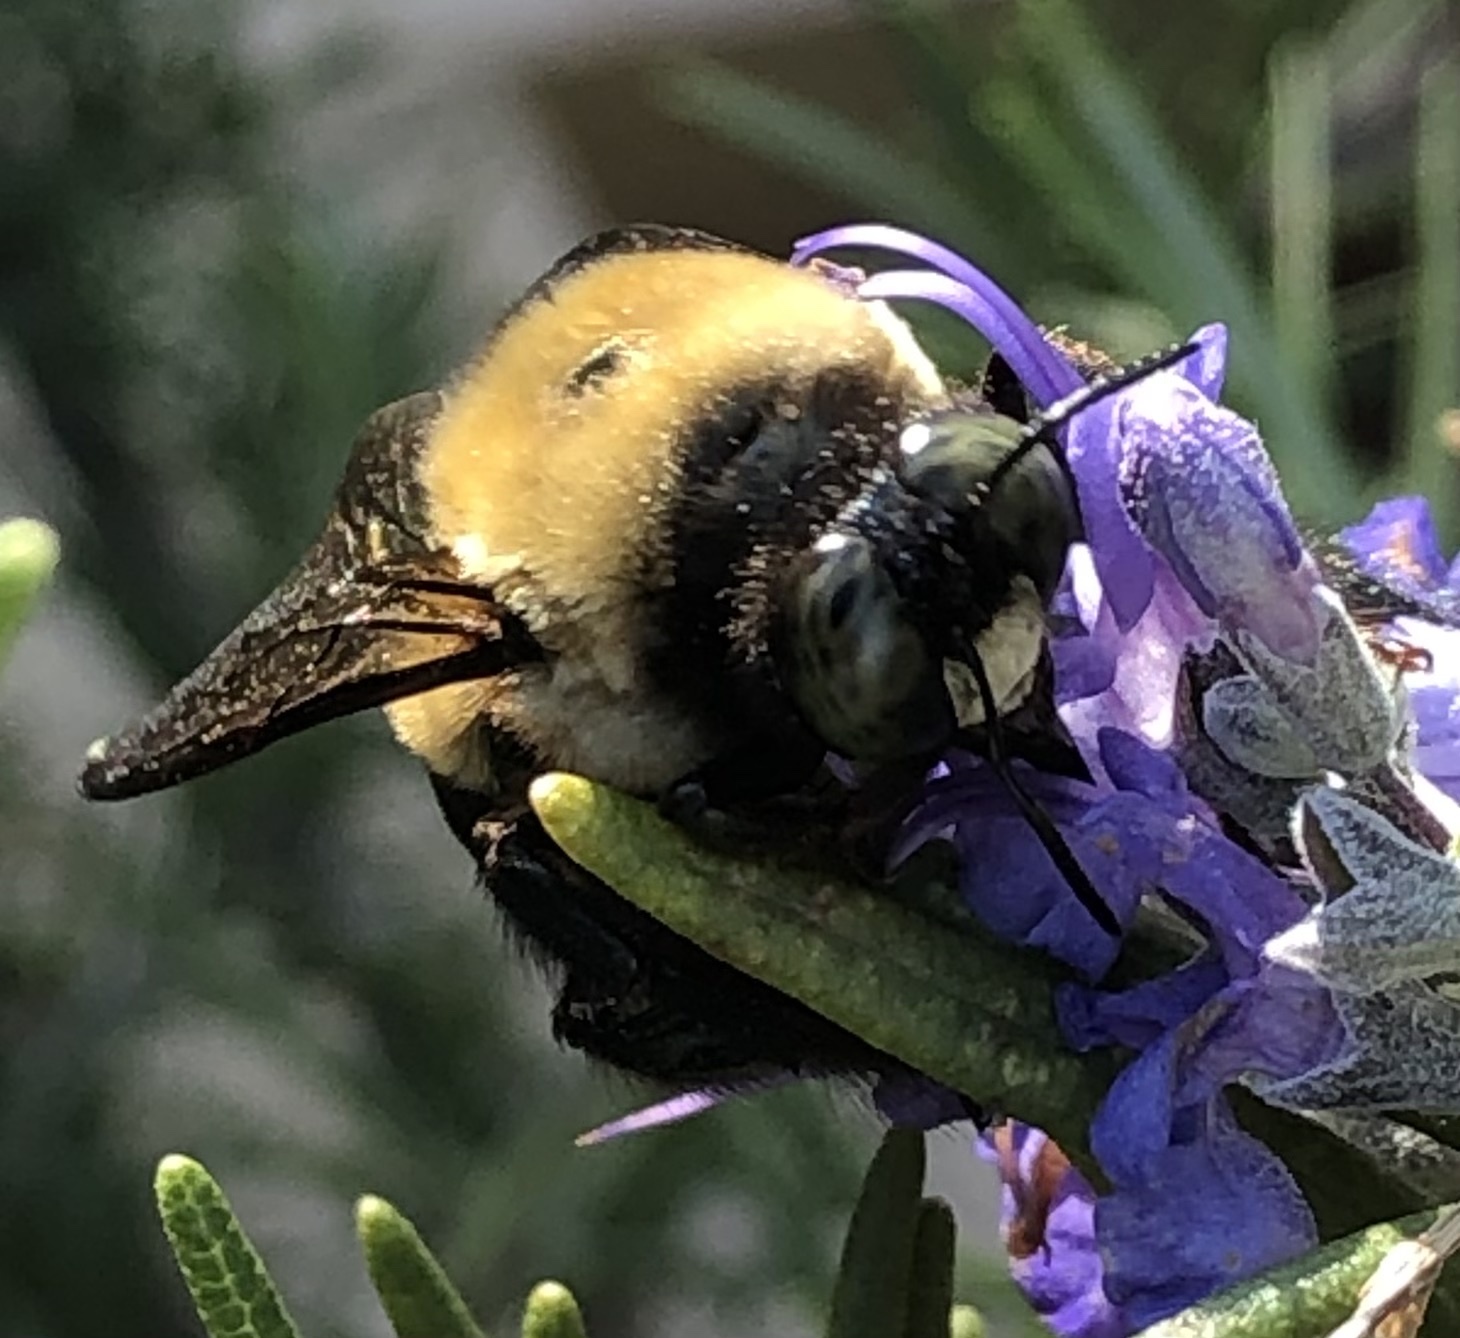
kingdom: Animalia
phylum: Arthropoda
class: Insecta
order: Hymenoptera
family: Apidae
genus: Xylocopa
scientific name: Xylocopa virginica
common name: Carpenter bee
